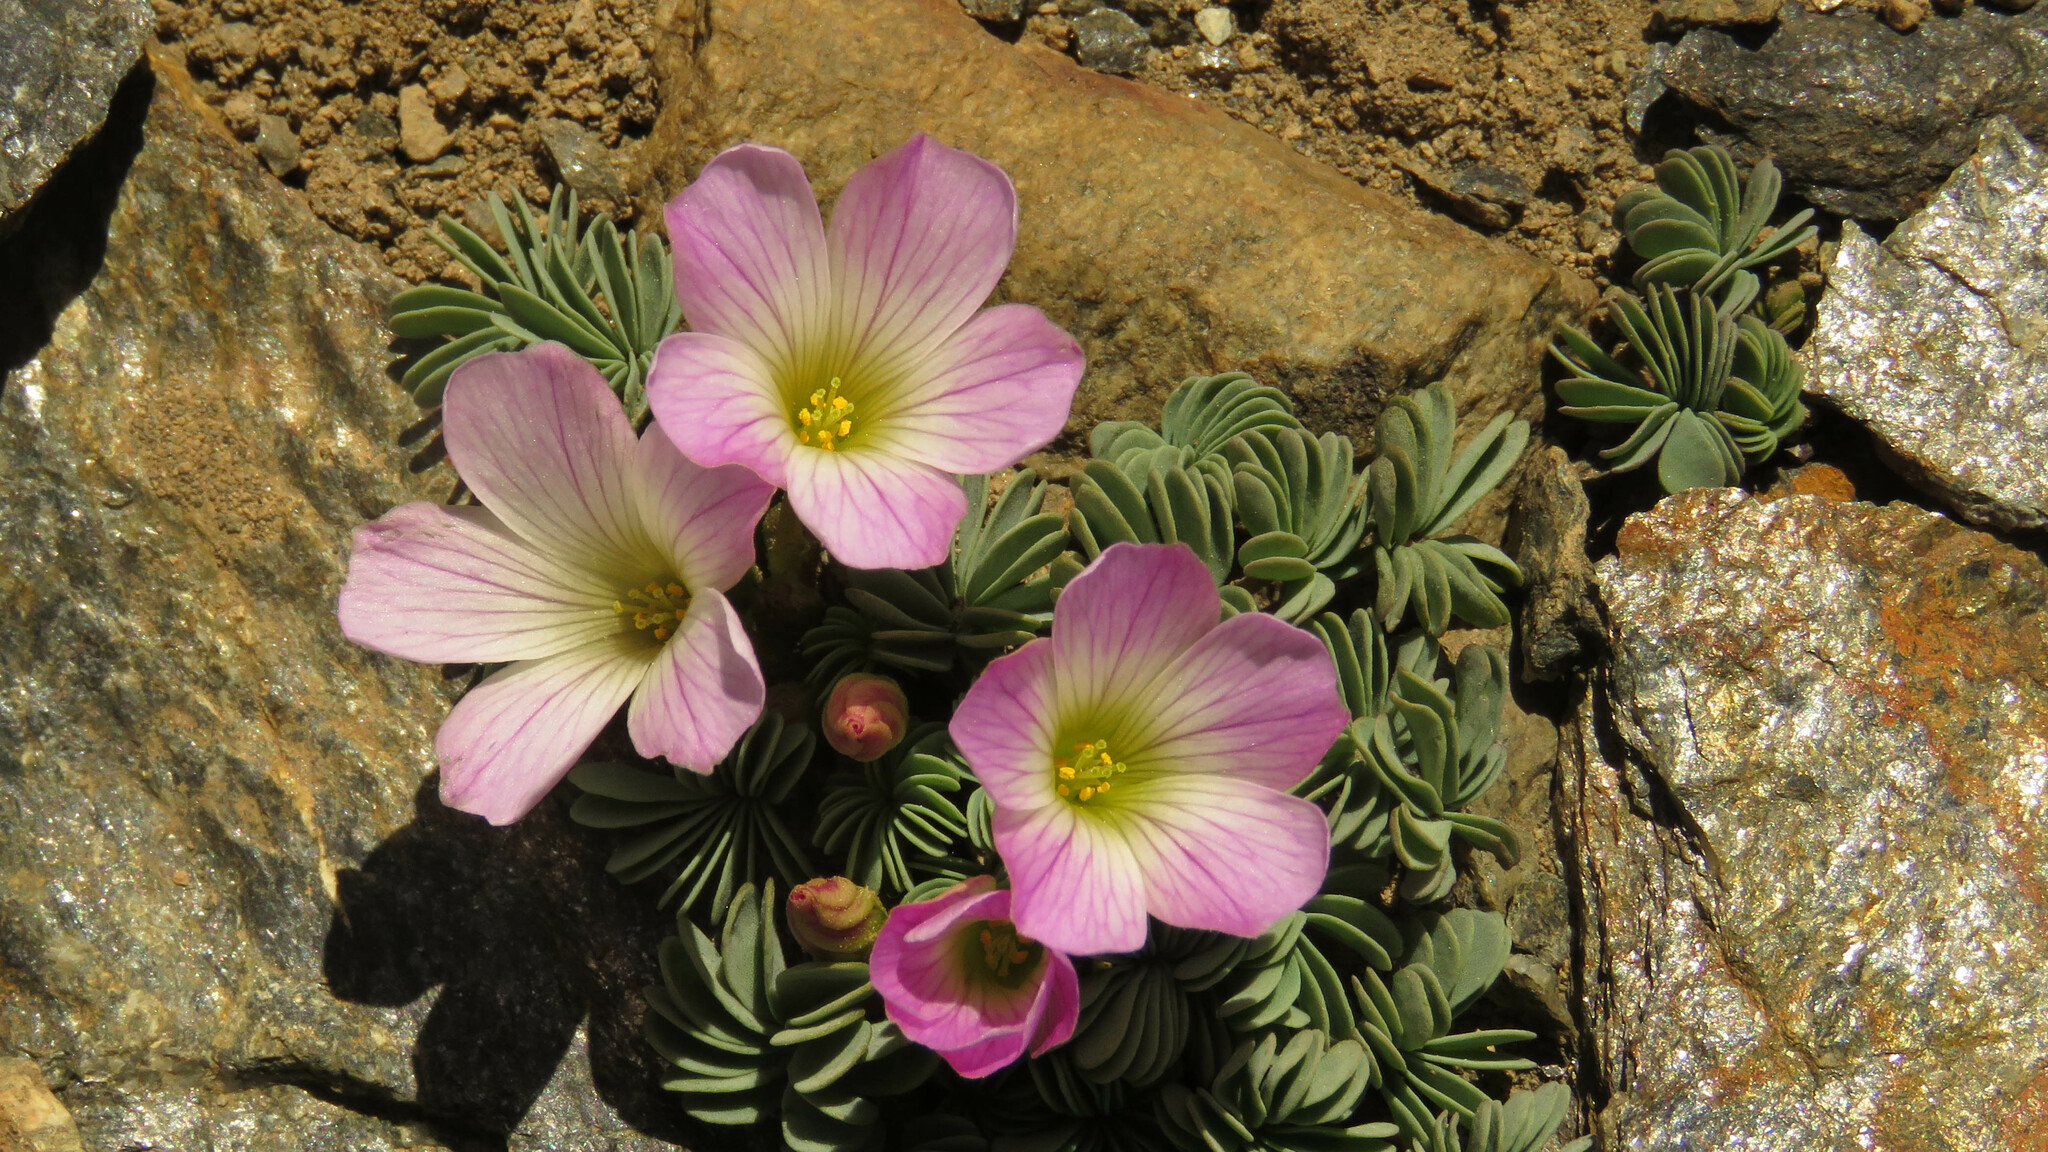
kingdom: Plantae
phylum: Tracheophyta
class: Magnoliopsida
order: Oxalidales
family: Oxalidaceae
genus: Oxalis
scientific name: Oxalis adenophylla
